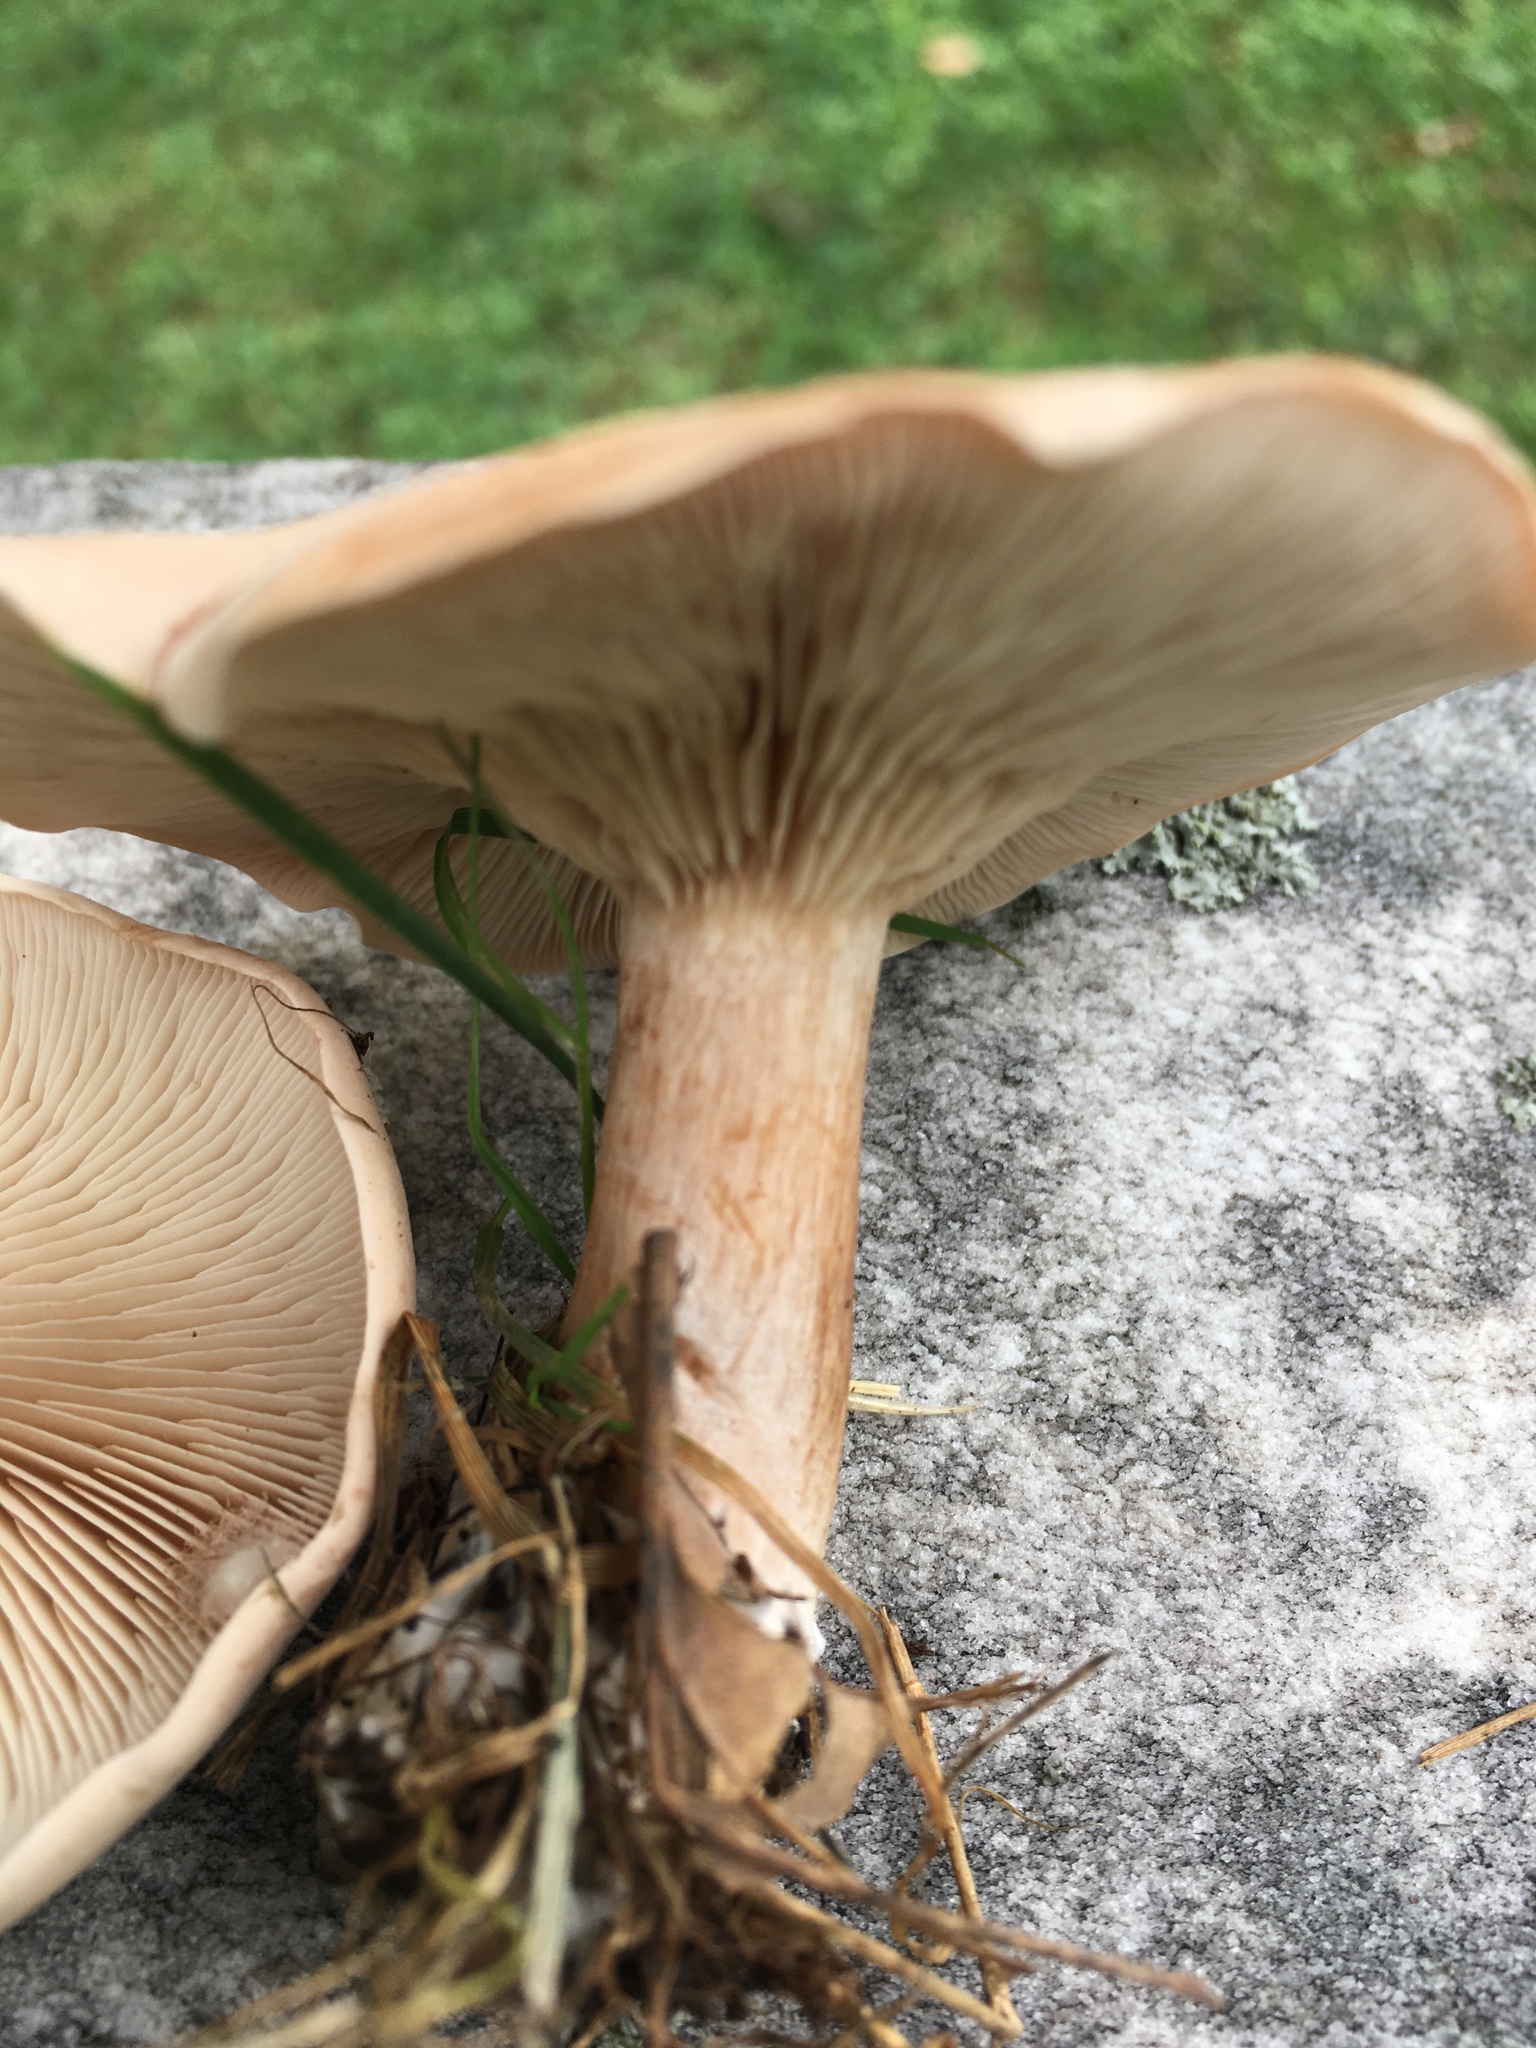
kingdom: Fungi
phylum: Basidiomycota
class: Agaricomycetes
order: Agaricales
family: Tricholomataceae
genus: Collybia
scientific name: Collybia
